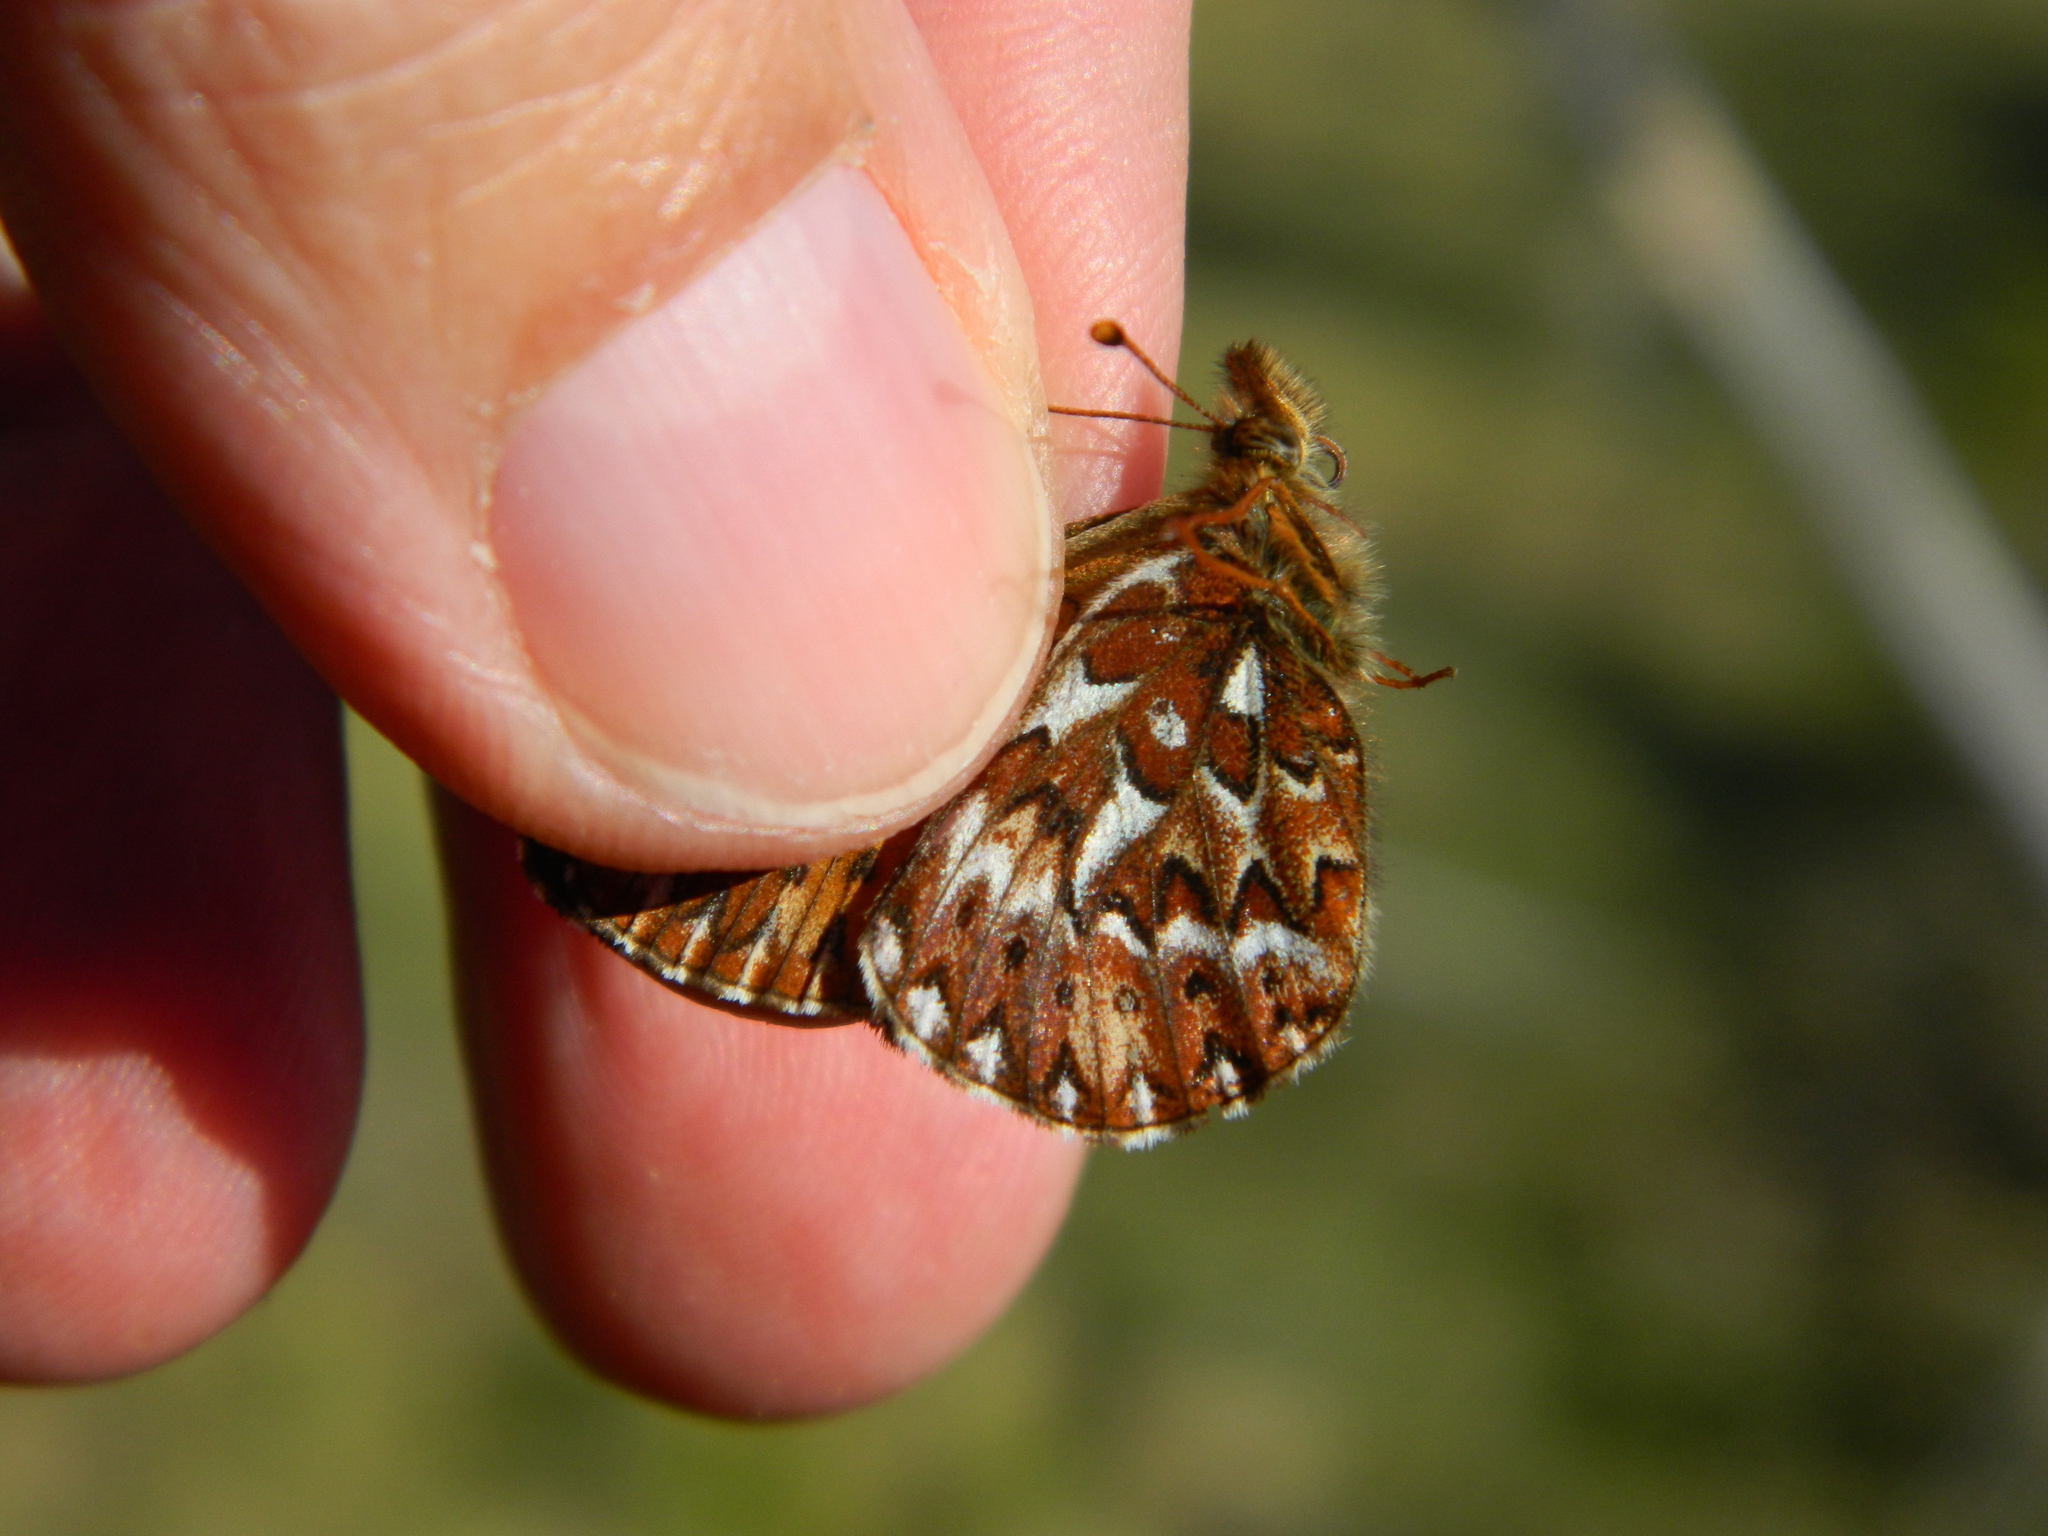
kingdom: Animalia
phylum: Arthropoda
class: Insecta
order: Lepidoptera
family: Nymphalidae
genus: Boloria
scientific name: Boloria freija
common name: Freija fritillary
